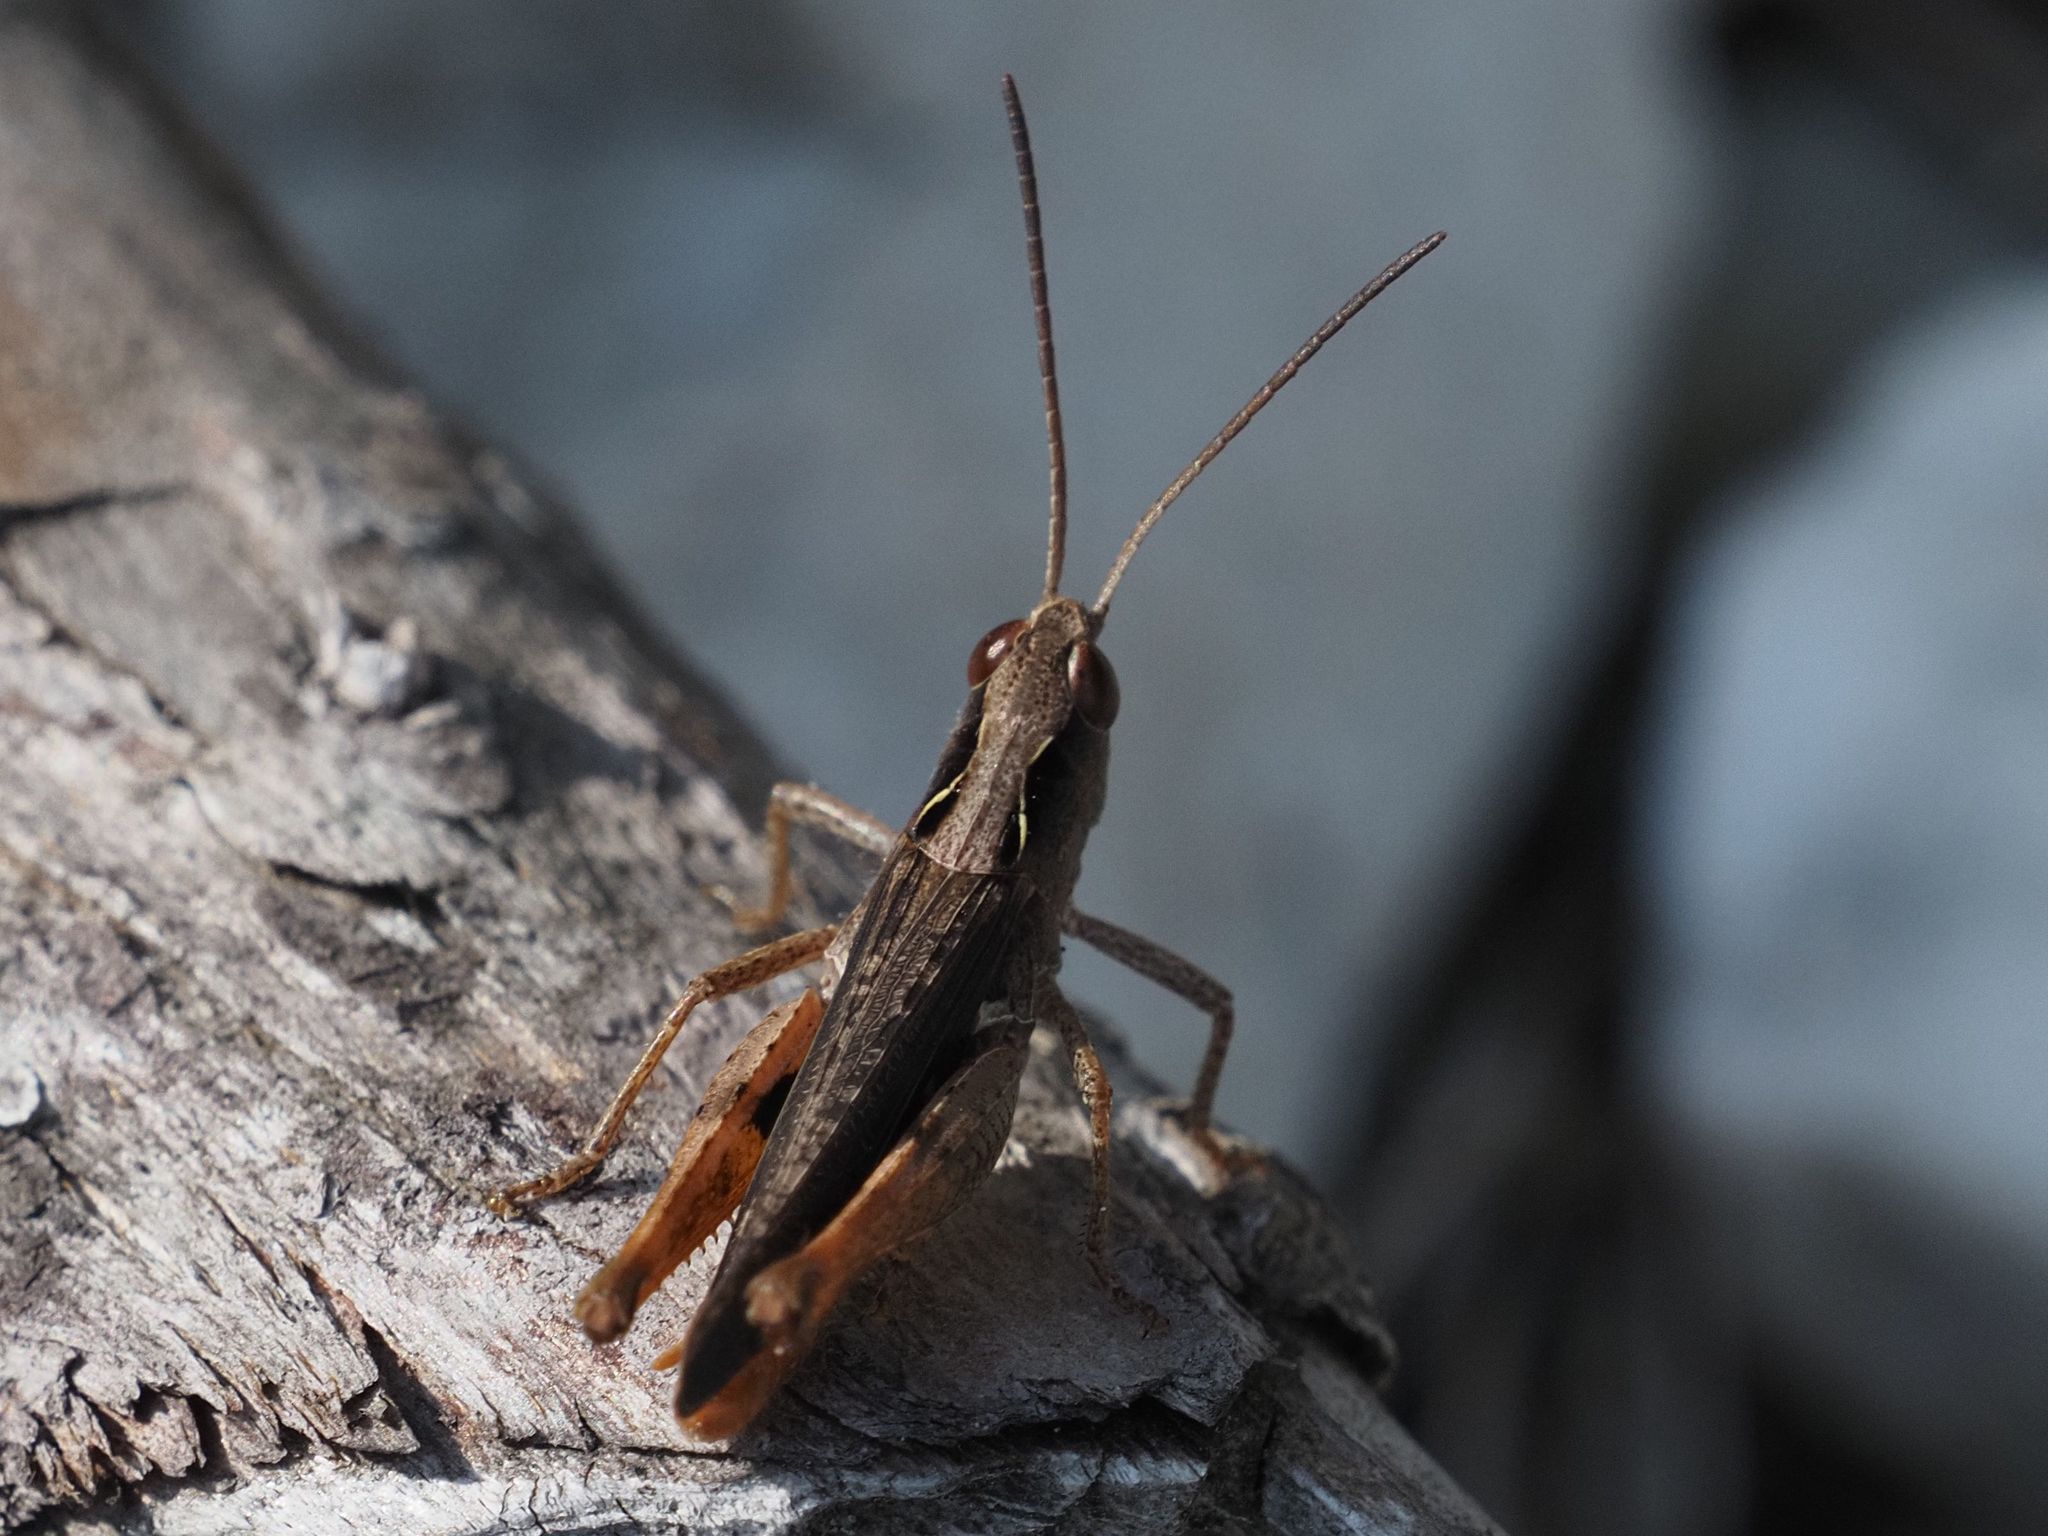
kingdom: Animalia
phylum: Arthropoda
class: Insecta
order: Orthoptera
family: Acrididae
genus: Chorthippus
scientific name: Chorthippus vagans
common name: Heath grasshopper
